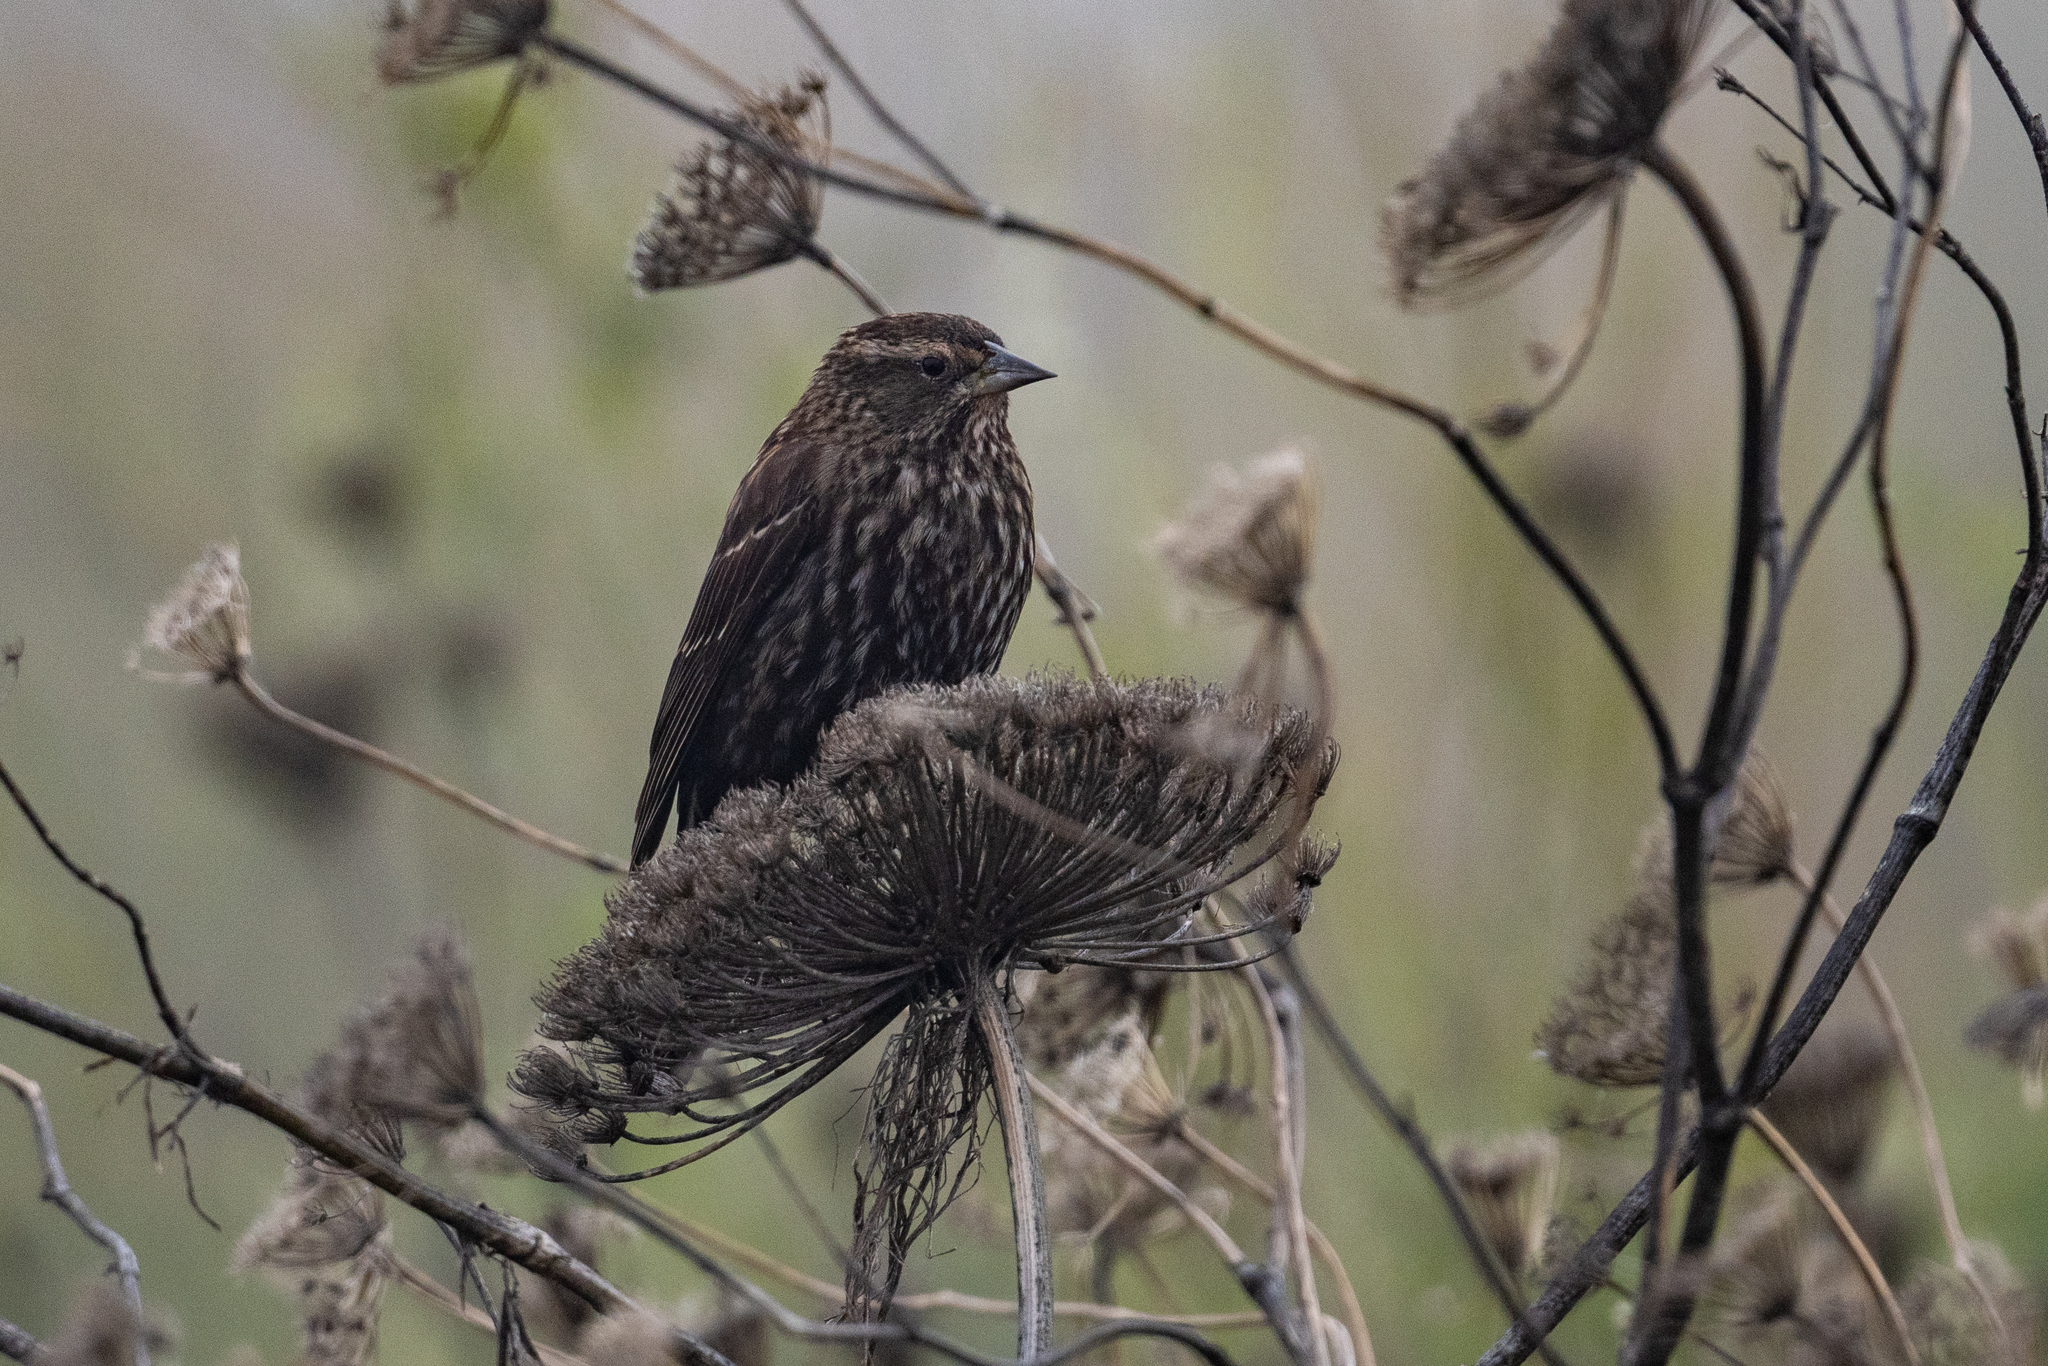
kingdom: Animalia
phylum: Chordata
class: Aves
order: Passeriformes
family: Icteridae
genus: Agelaius
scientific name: Agelaius phoeniceus
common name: Red-winged blackbird
